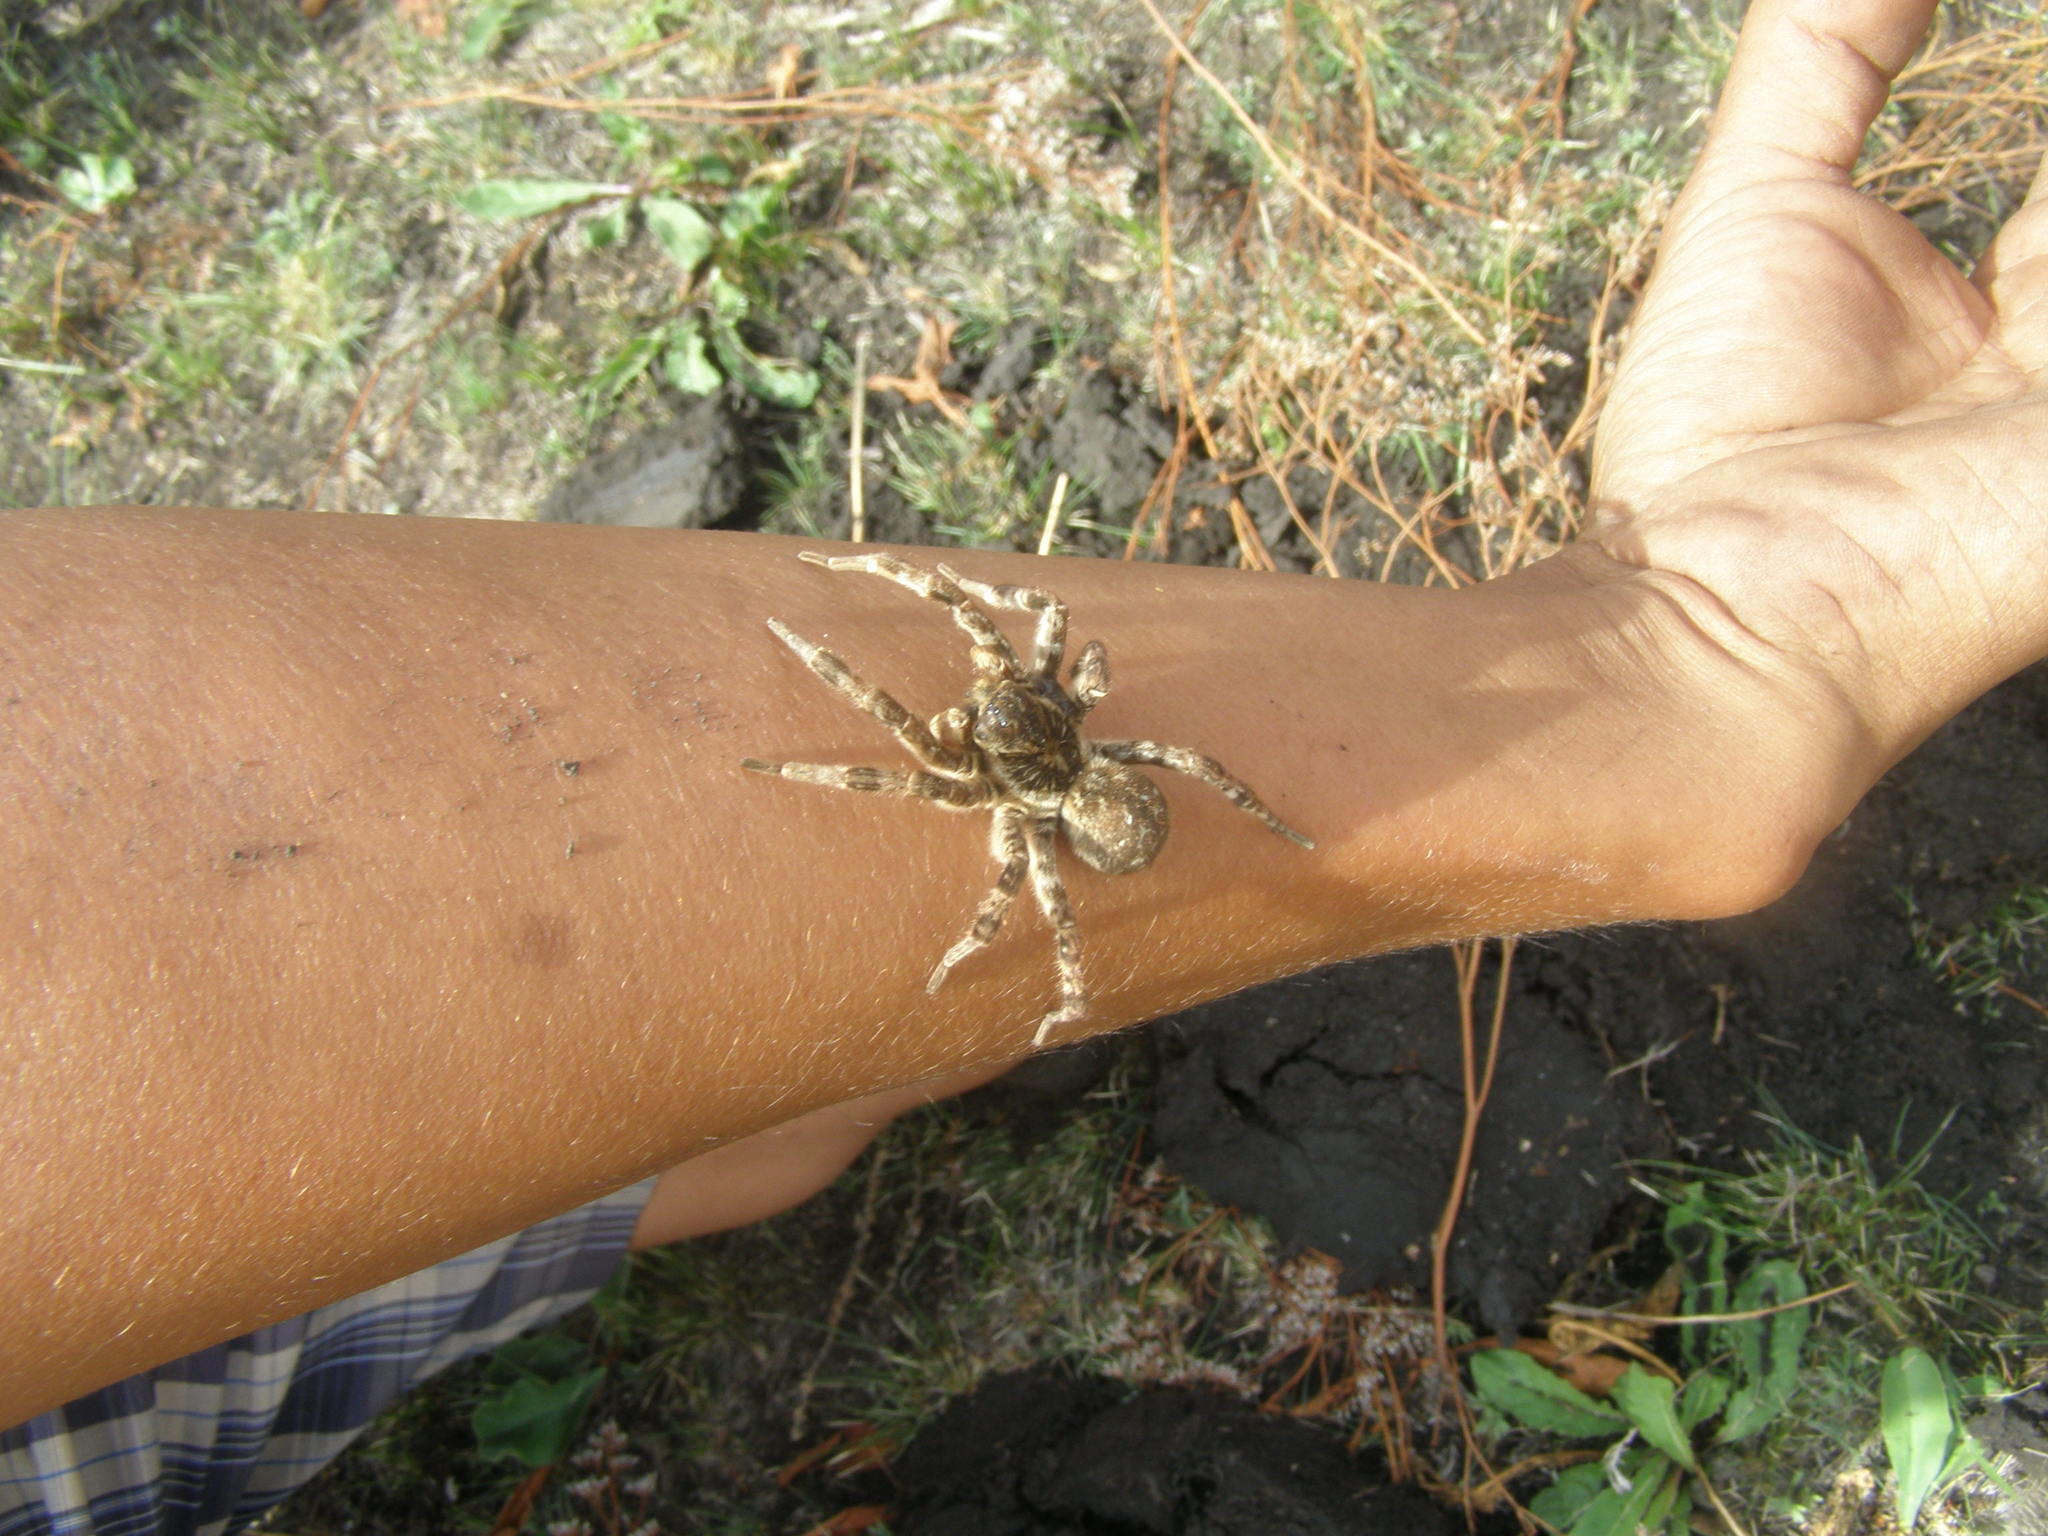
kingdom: Animalia
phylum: Arthropoda
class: Arachnida
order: Araneae
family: Lycosidae
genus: Lycosa
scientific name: Lycosa singoriensis
